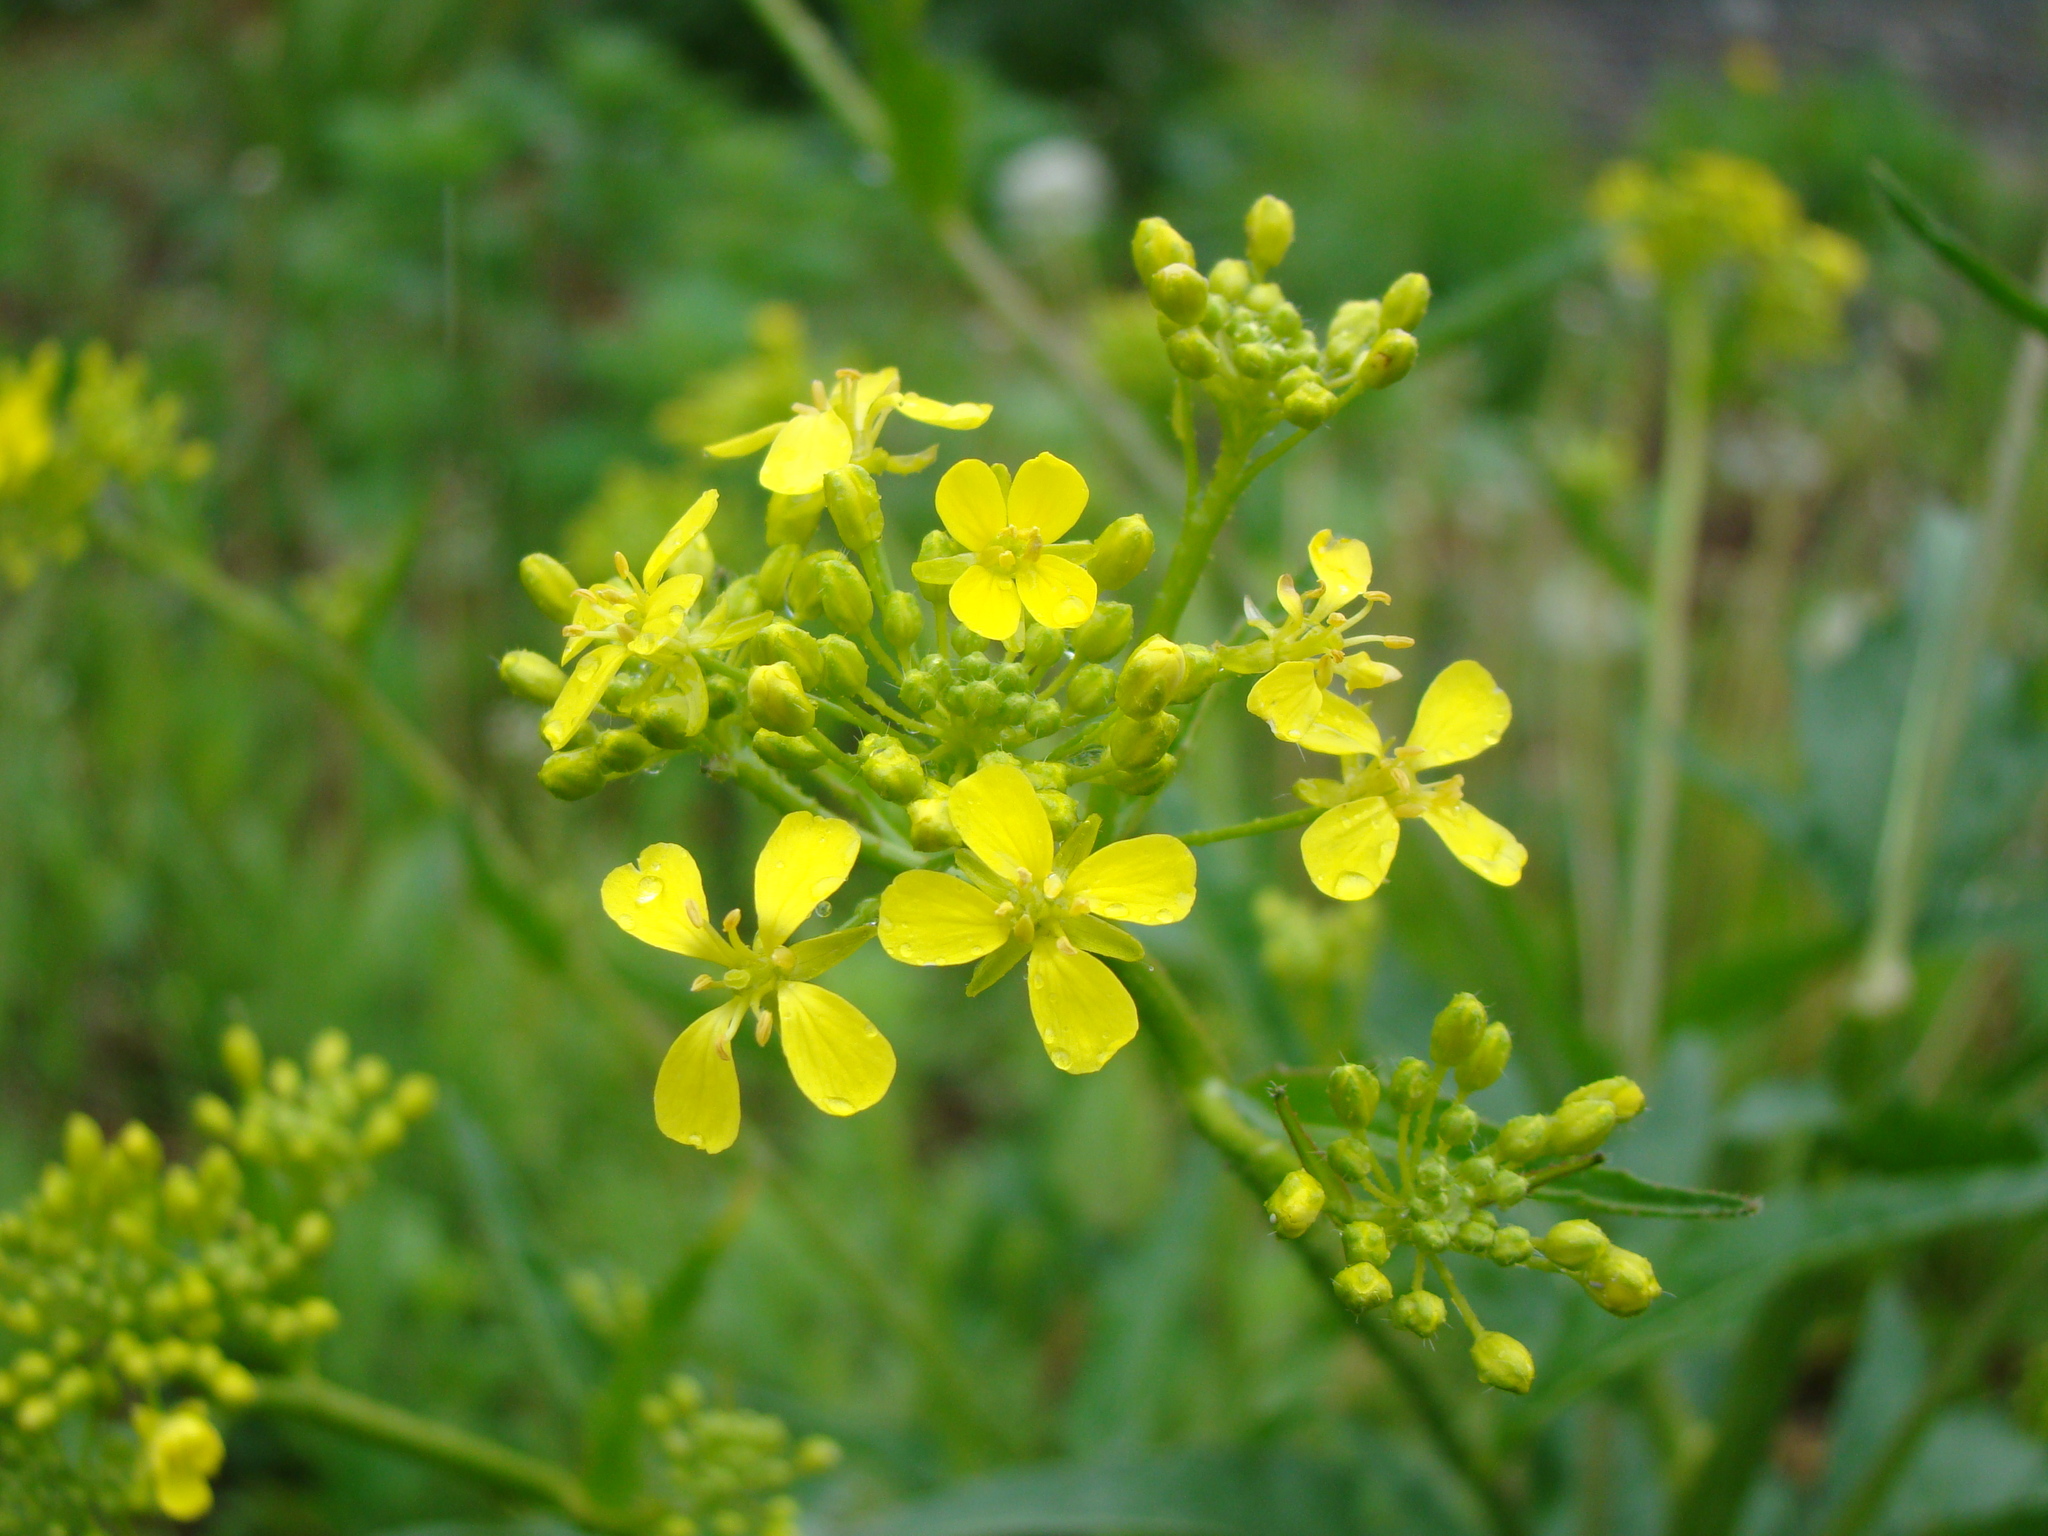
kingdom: Plantae
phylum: Tracheophyta
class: Magnoliopsida
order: Brassicales
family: Brassicaceae
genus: Bunias
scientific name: Bunias orientalis
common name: Warty-cabbage
